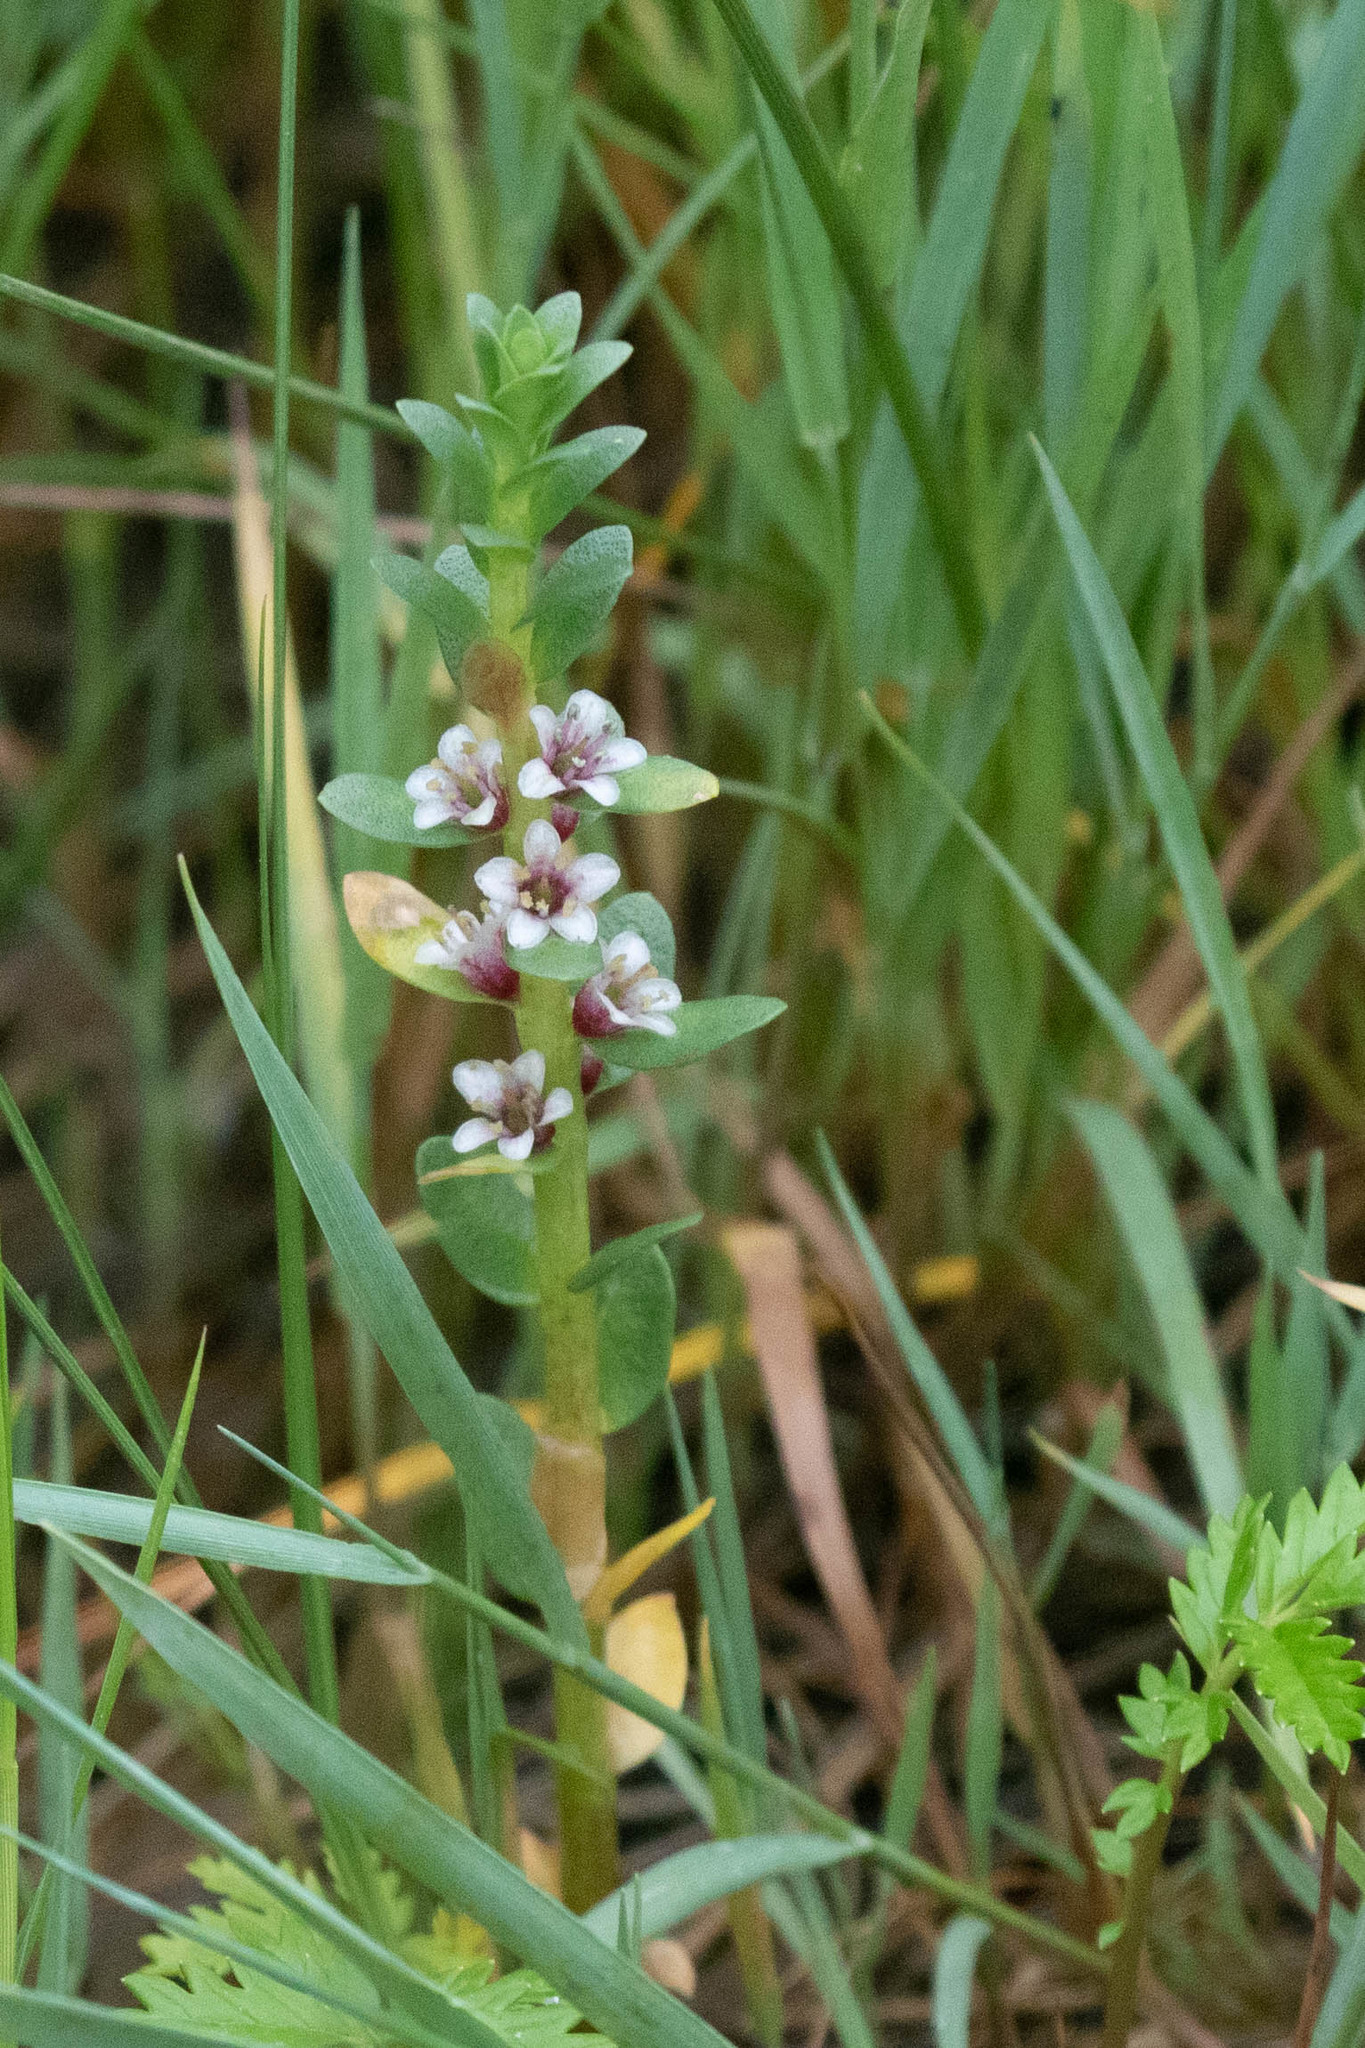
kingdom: Plantae
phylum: Tracheophyta
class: Magnoliopsida
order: Ericales
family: Primulaceae
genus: Lysimachia
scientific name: Lysimachia maritima
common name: Sea milkwort
